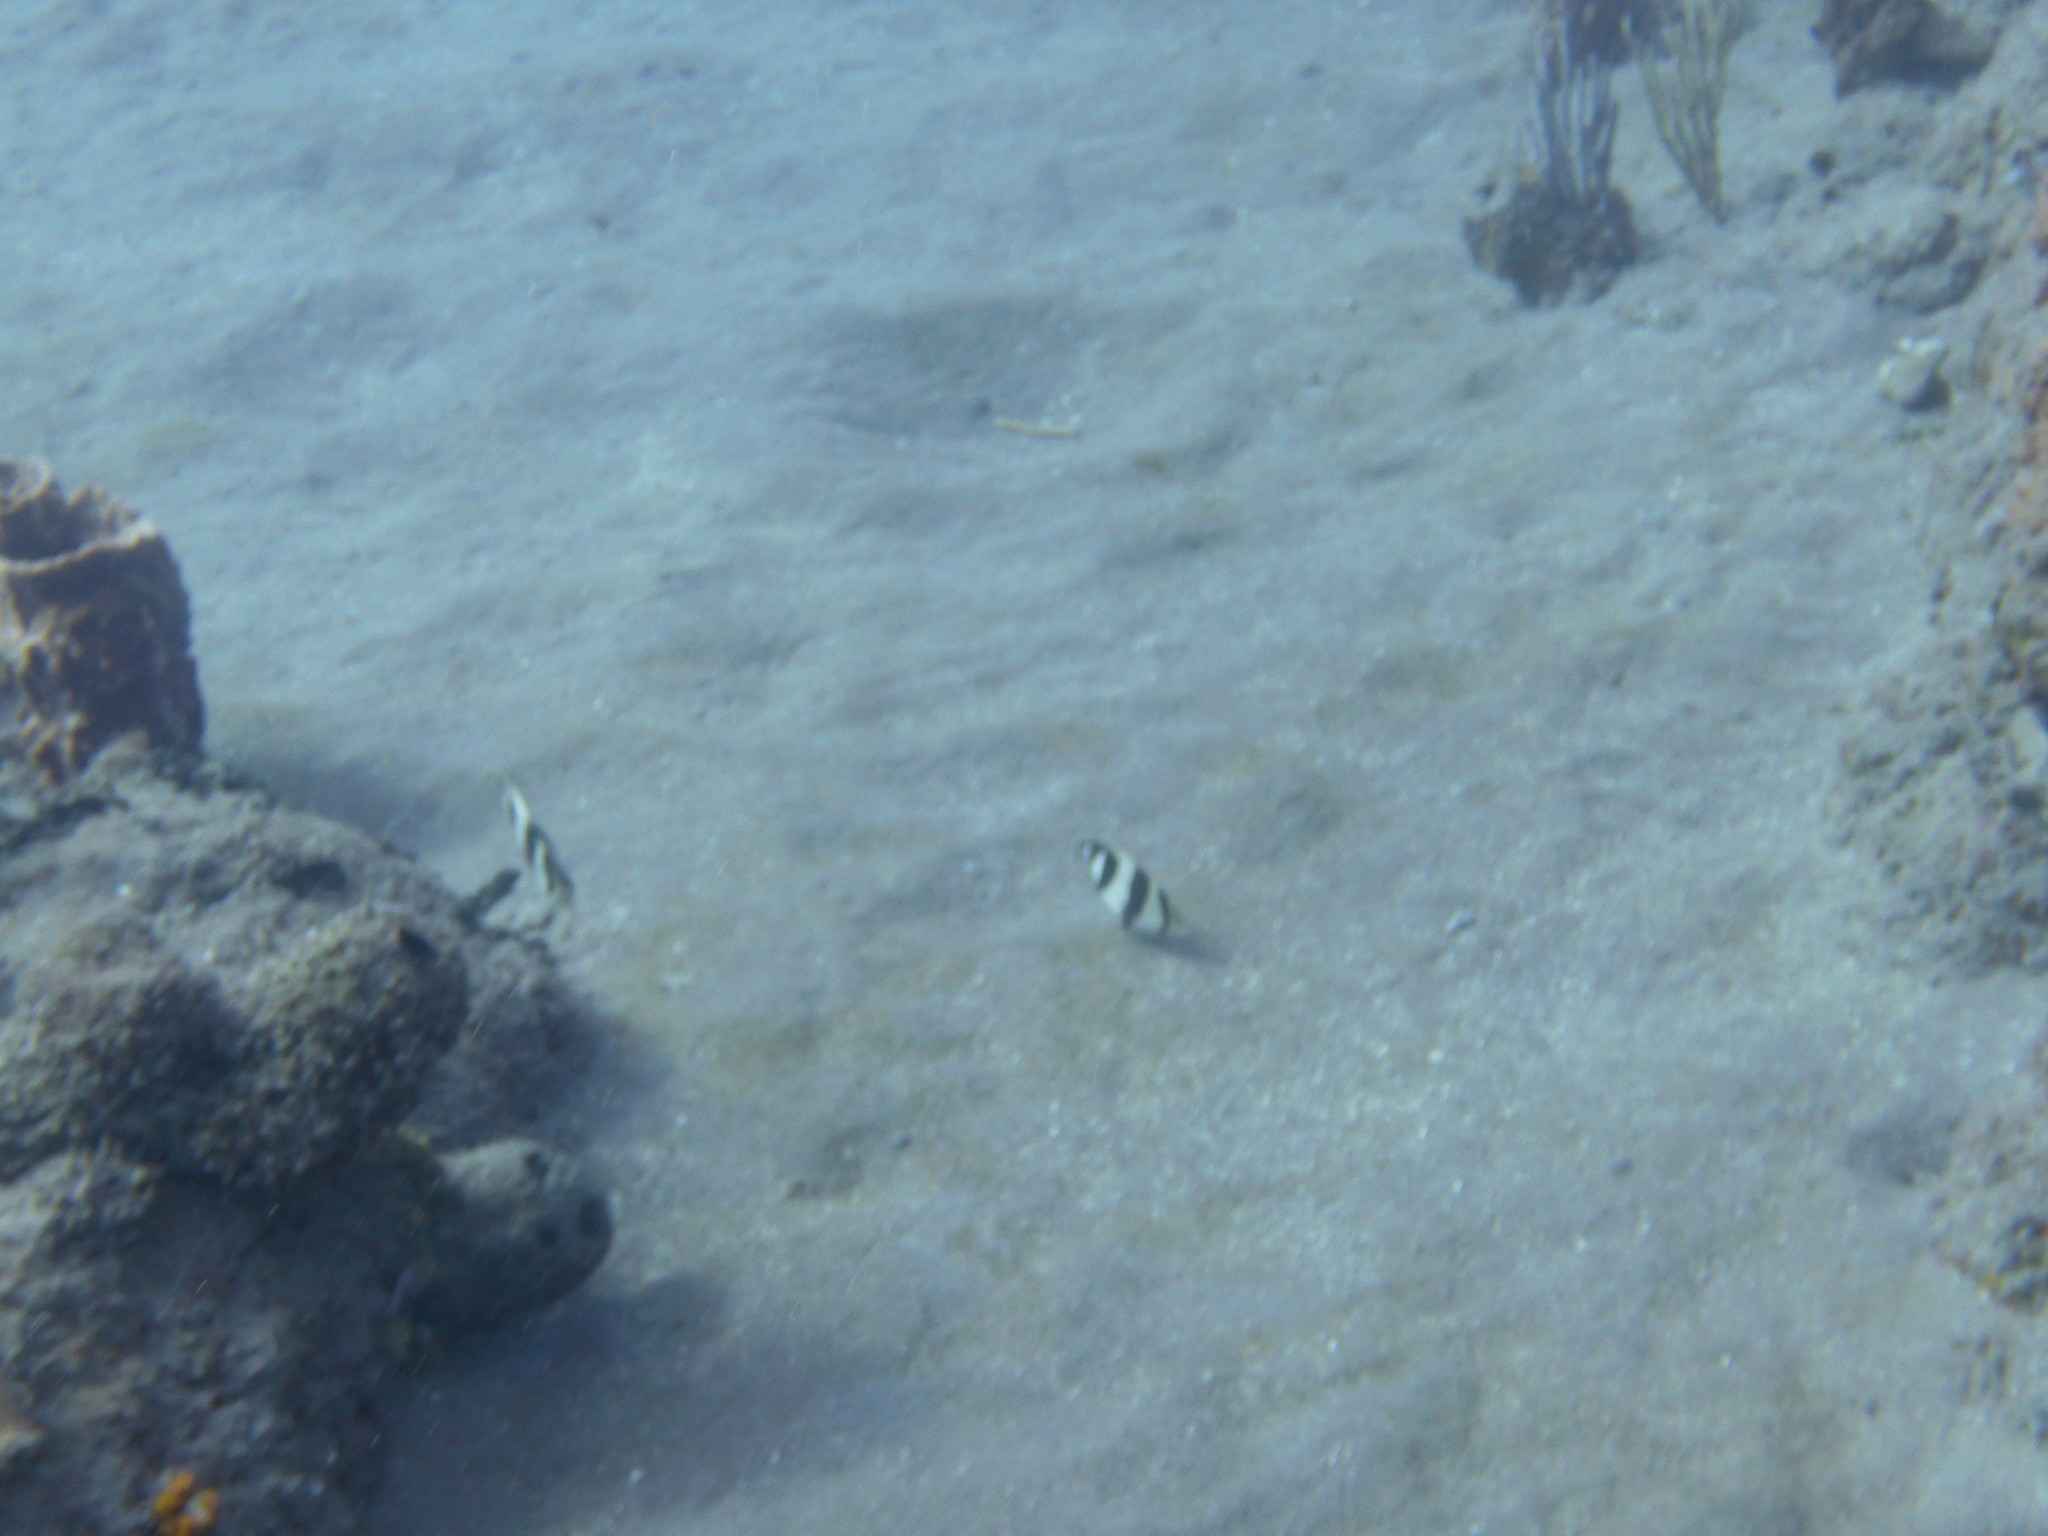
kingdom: Animalia
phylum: Chordata
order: Perciformes
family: Chaetodontidae
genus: Chaetodon
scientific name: Chaetodon striatus
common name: Banded butterflyfish
